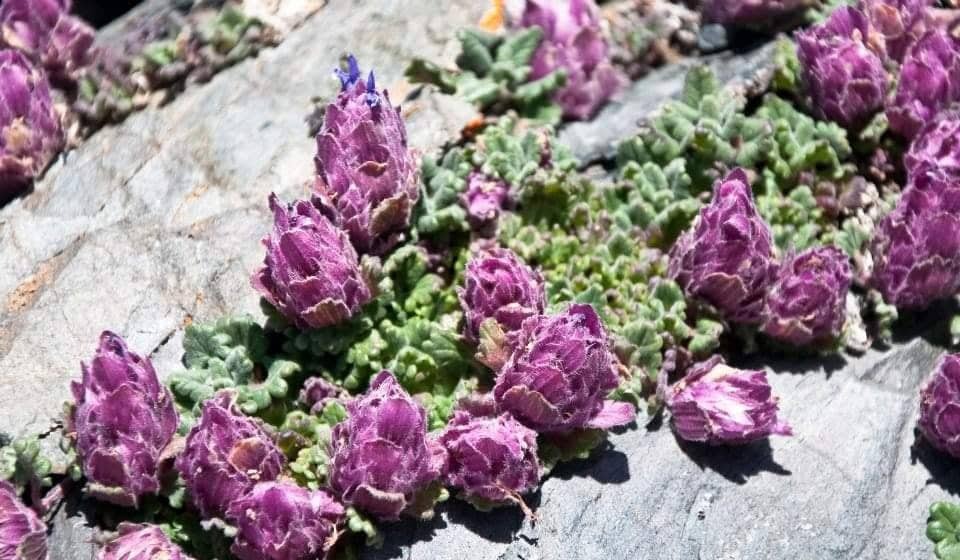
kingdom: Plantae
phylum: Tracheophyta
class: Magnoliopsida
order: Lamiales
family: Lamiaceae
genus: Dracocephalum
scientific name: Dracocephalum origanoides
